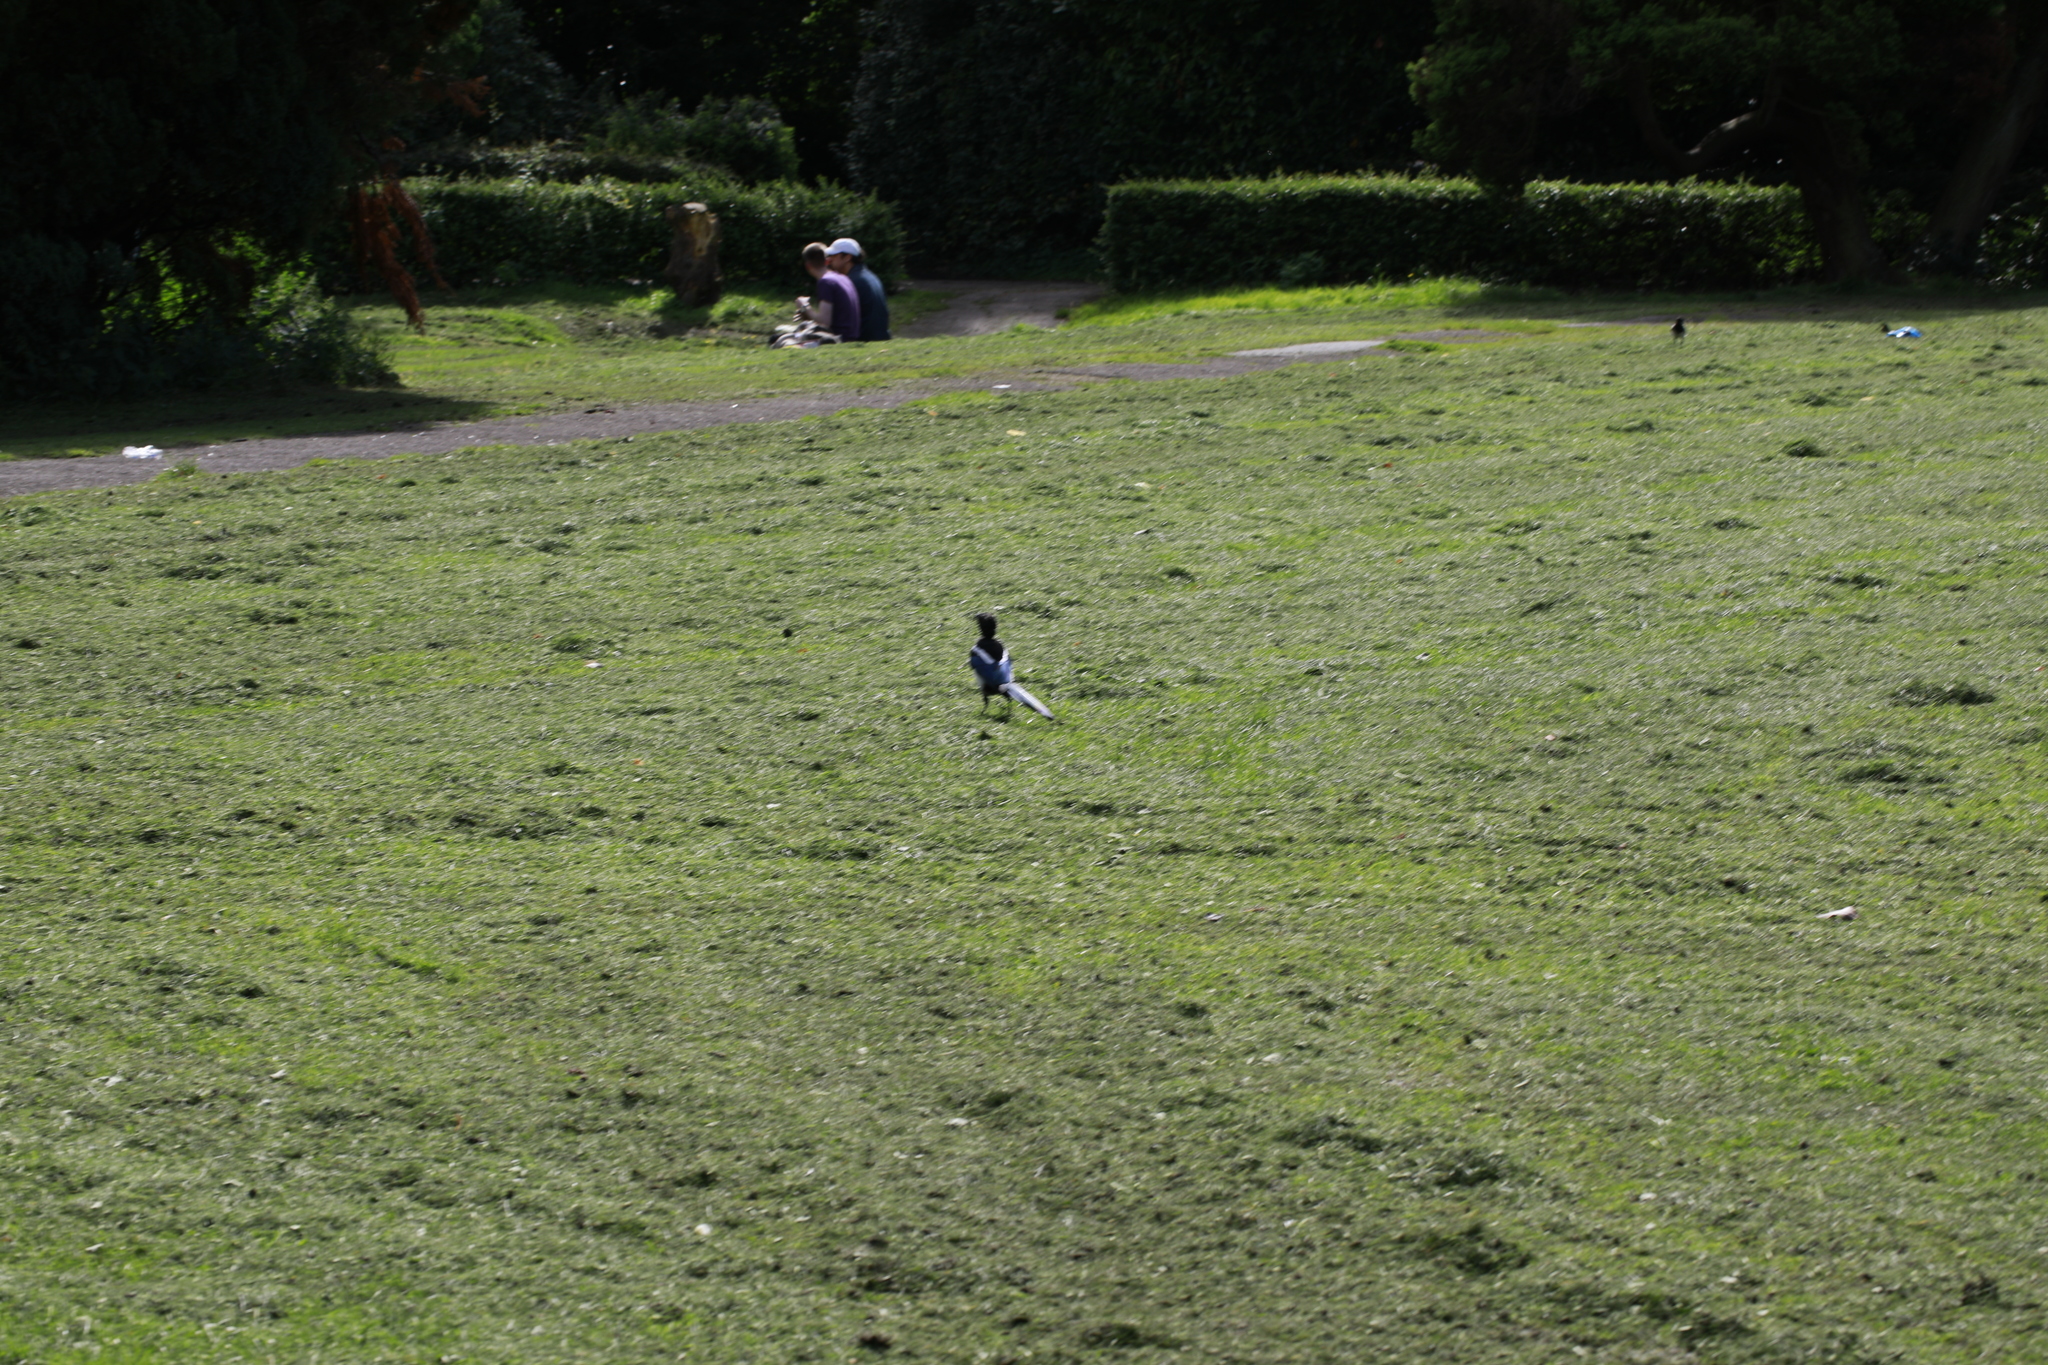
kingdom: Animalia
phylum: Chordata
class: Aves
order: Passeriformes
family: Corvidae
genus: Pica
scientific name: Pica pica
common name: Eurasian magpie
